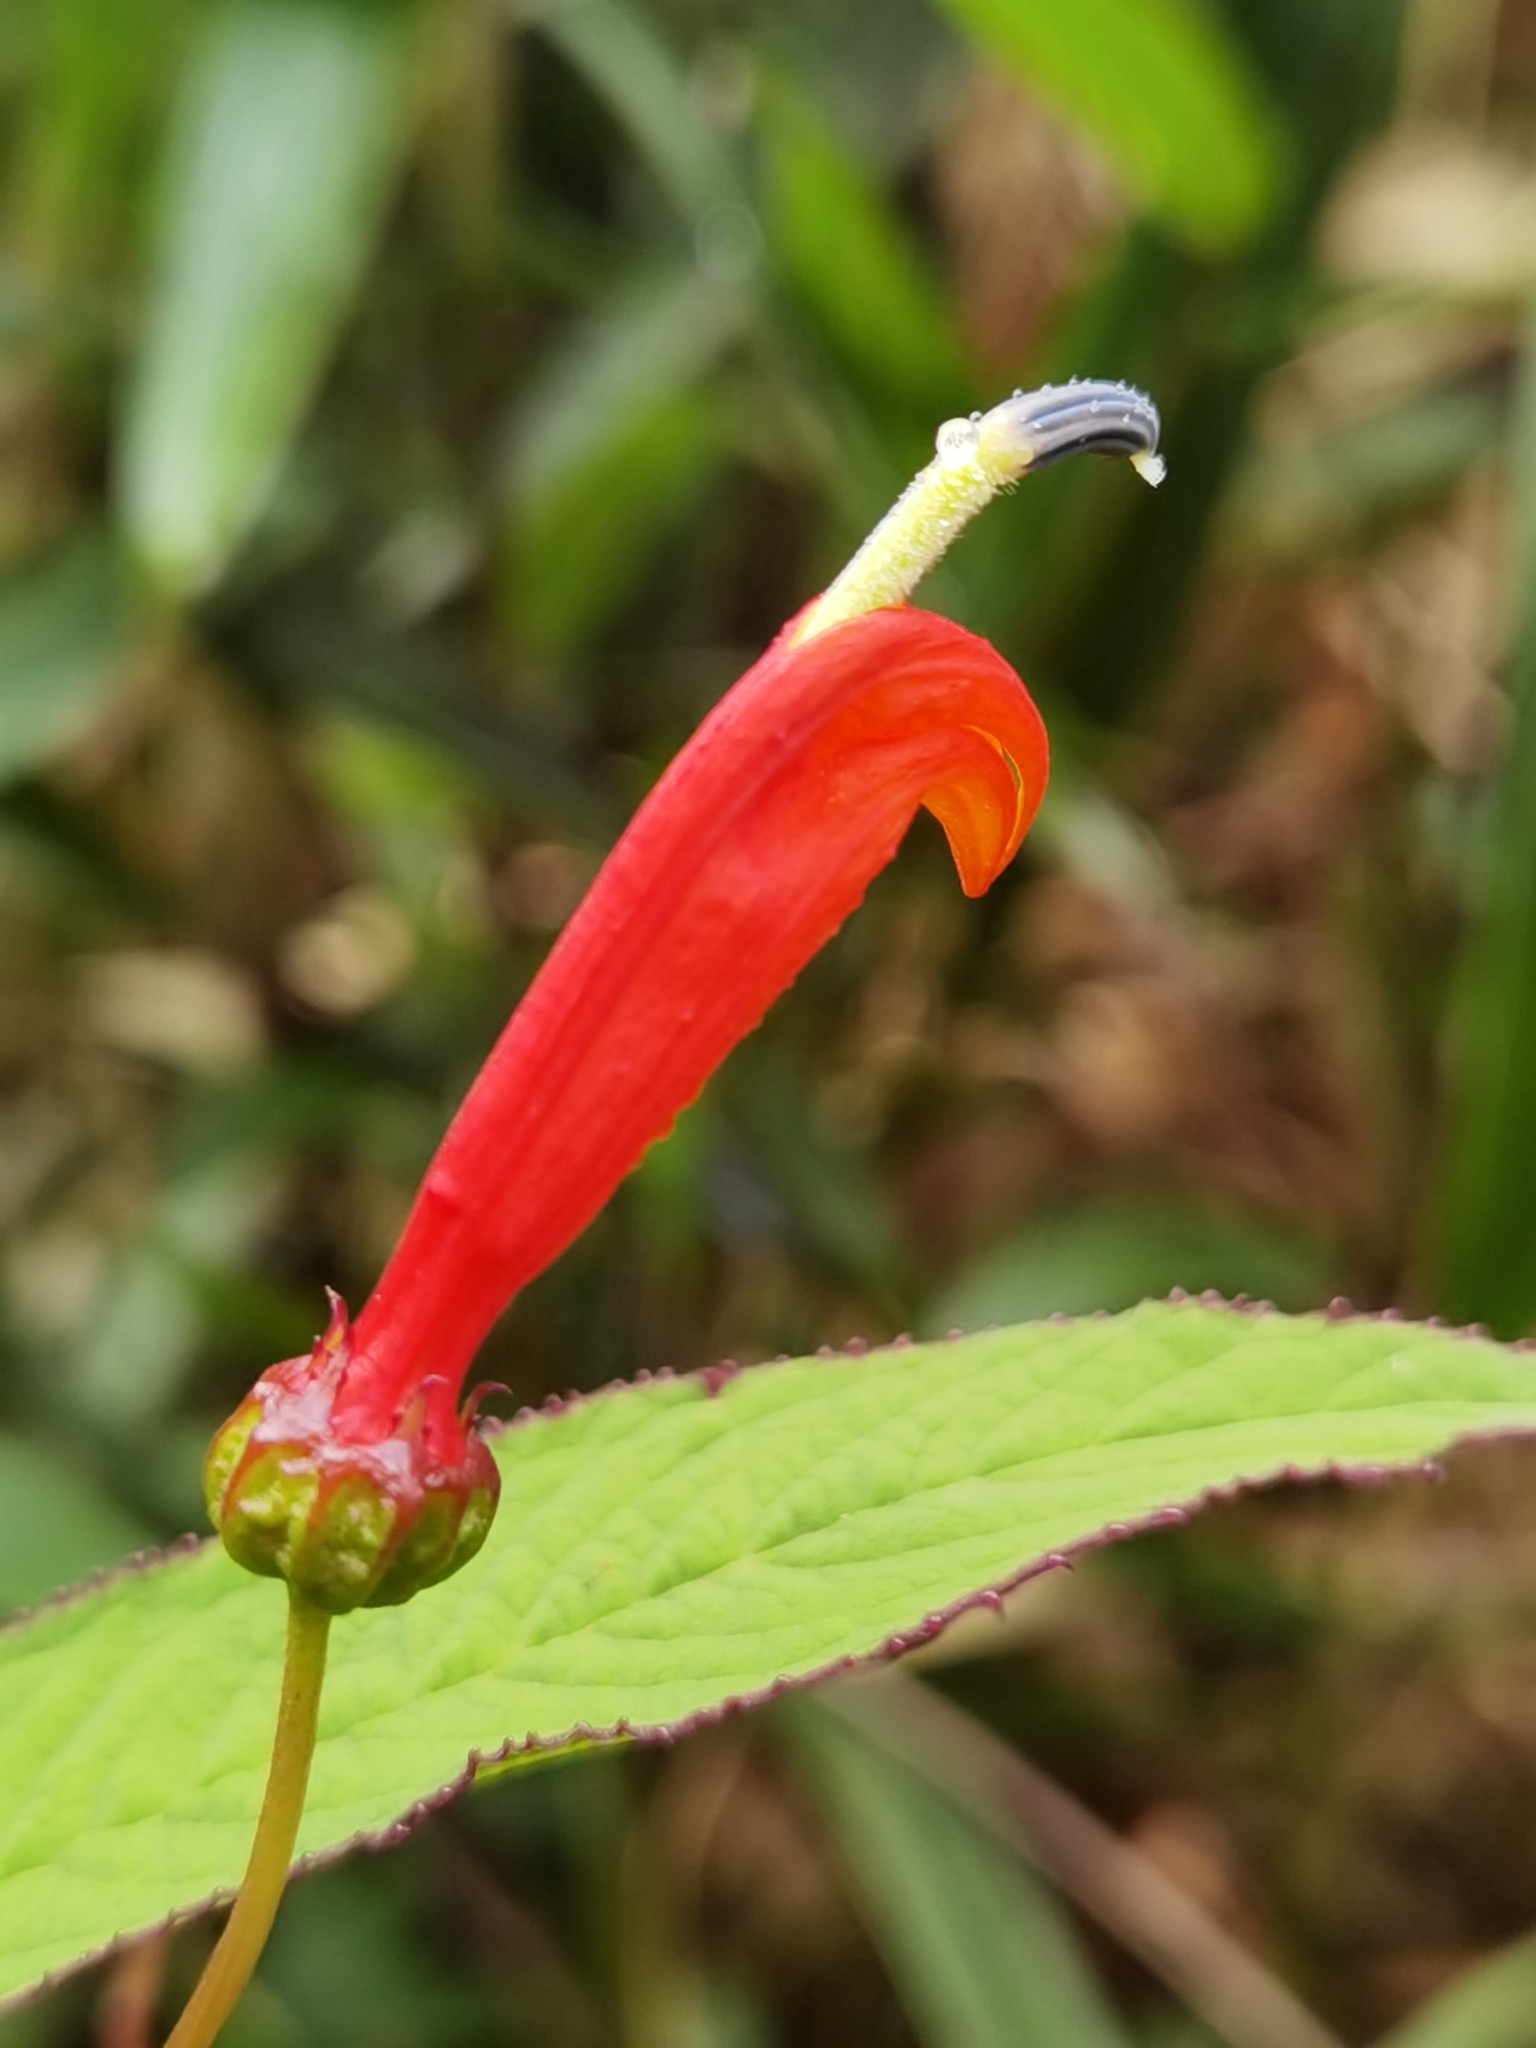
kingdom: Plantae
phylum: Tracheophyta
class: Magnoliopsida
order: Asterales
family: Campanulaceae
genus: Centropogon
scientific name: Centropogon valerii
